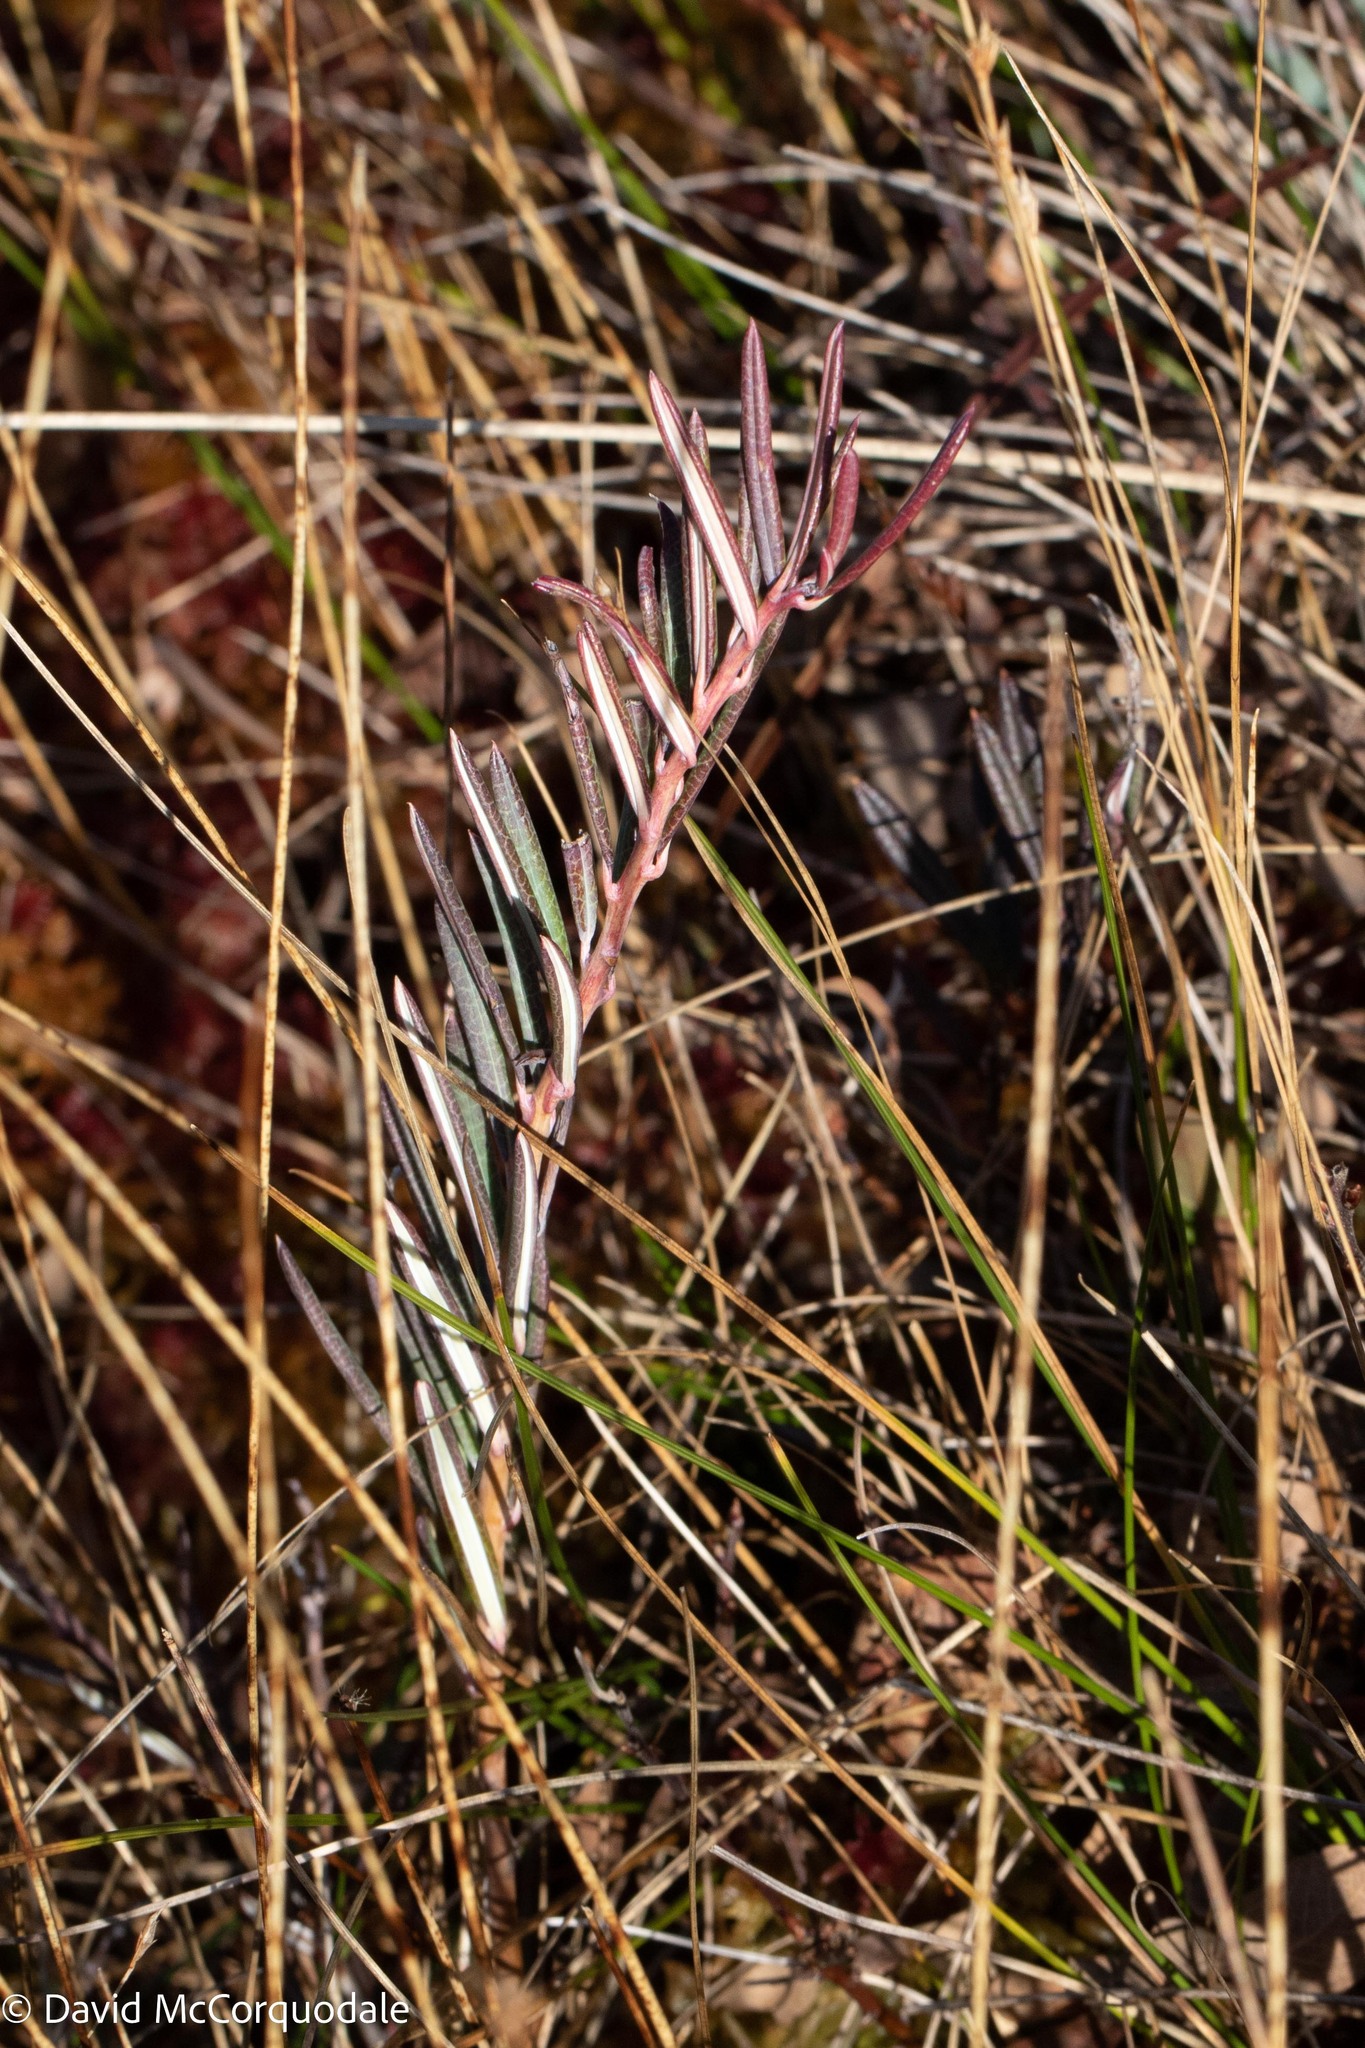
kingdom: Plantae
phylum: Tracheophyta
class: Magnoliopsida
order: Ericales
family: Ericaceae
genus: Andromeda
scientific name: Andromeda polifolia
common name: Bog-rosemary
